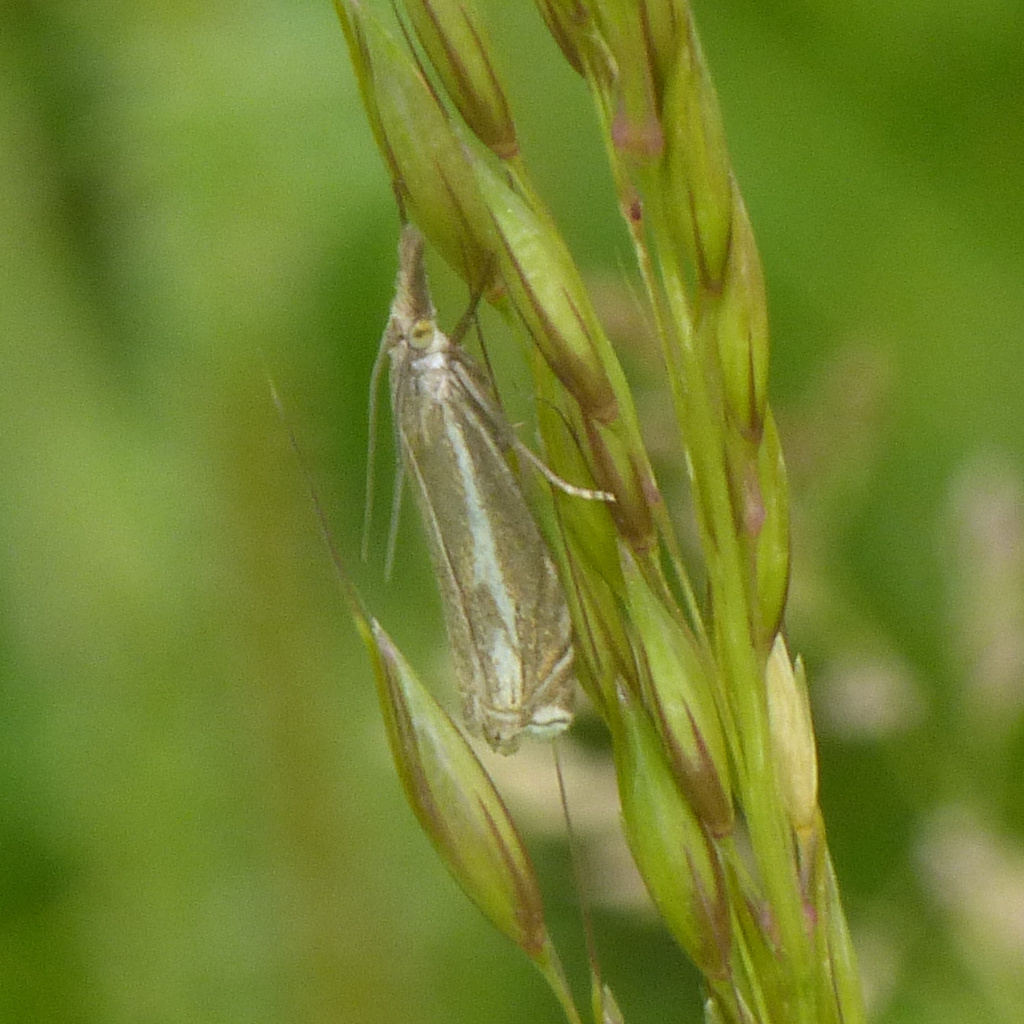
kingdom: Animalia
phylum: Arthropoda
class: Insecta
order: Lepidoptera
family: Crambidae
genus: Crambus
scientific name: Crambus nemorella
